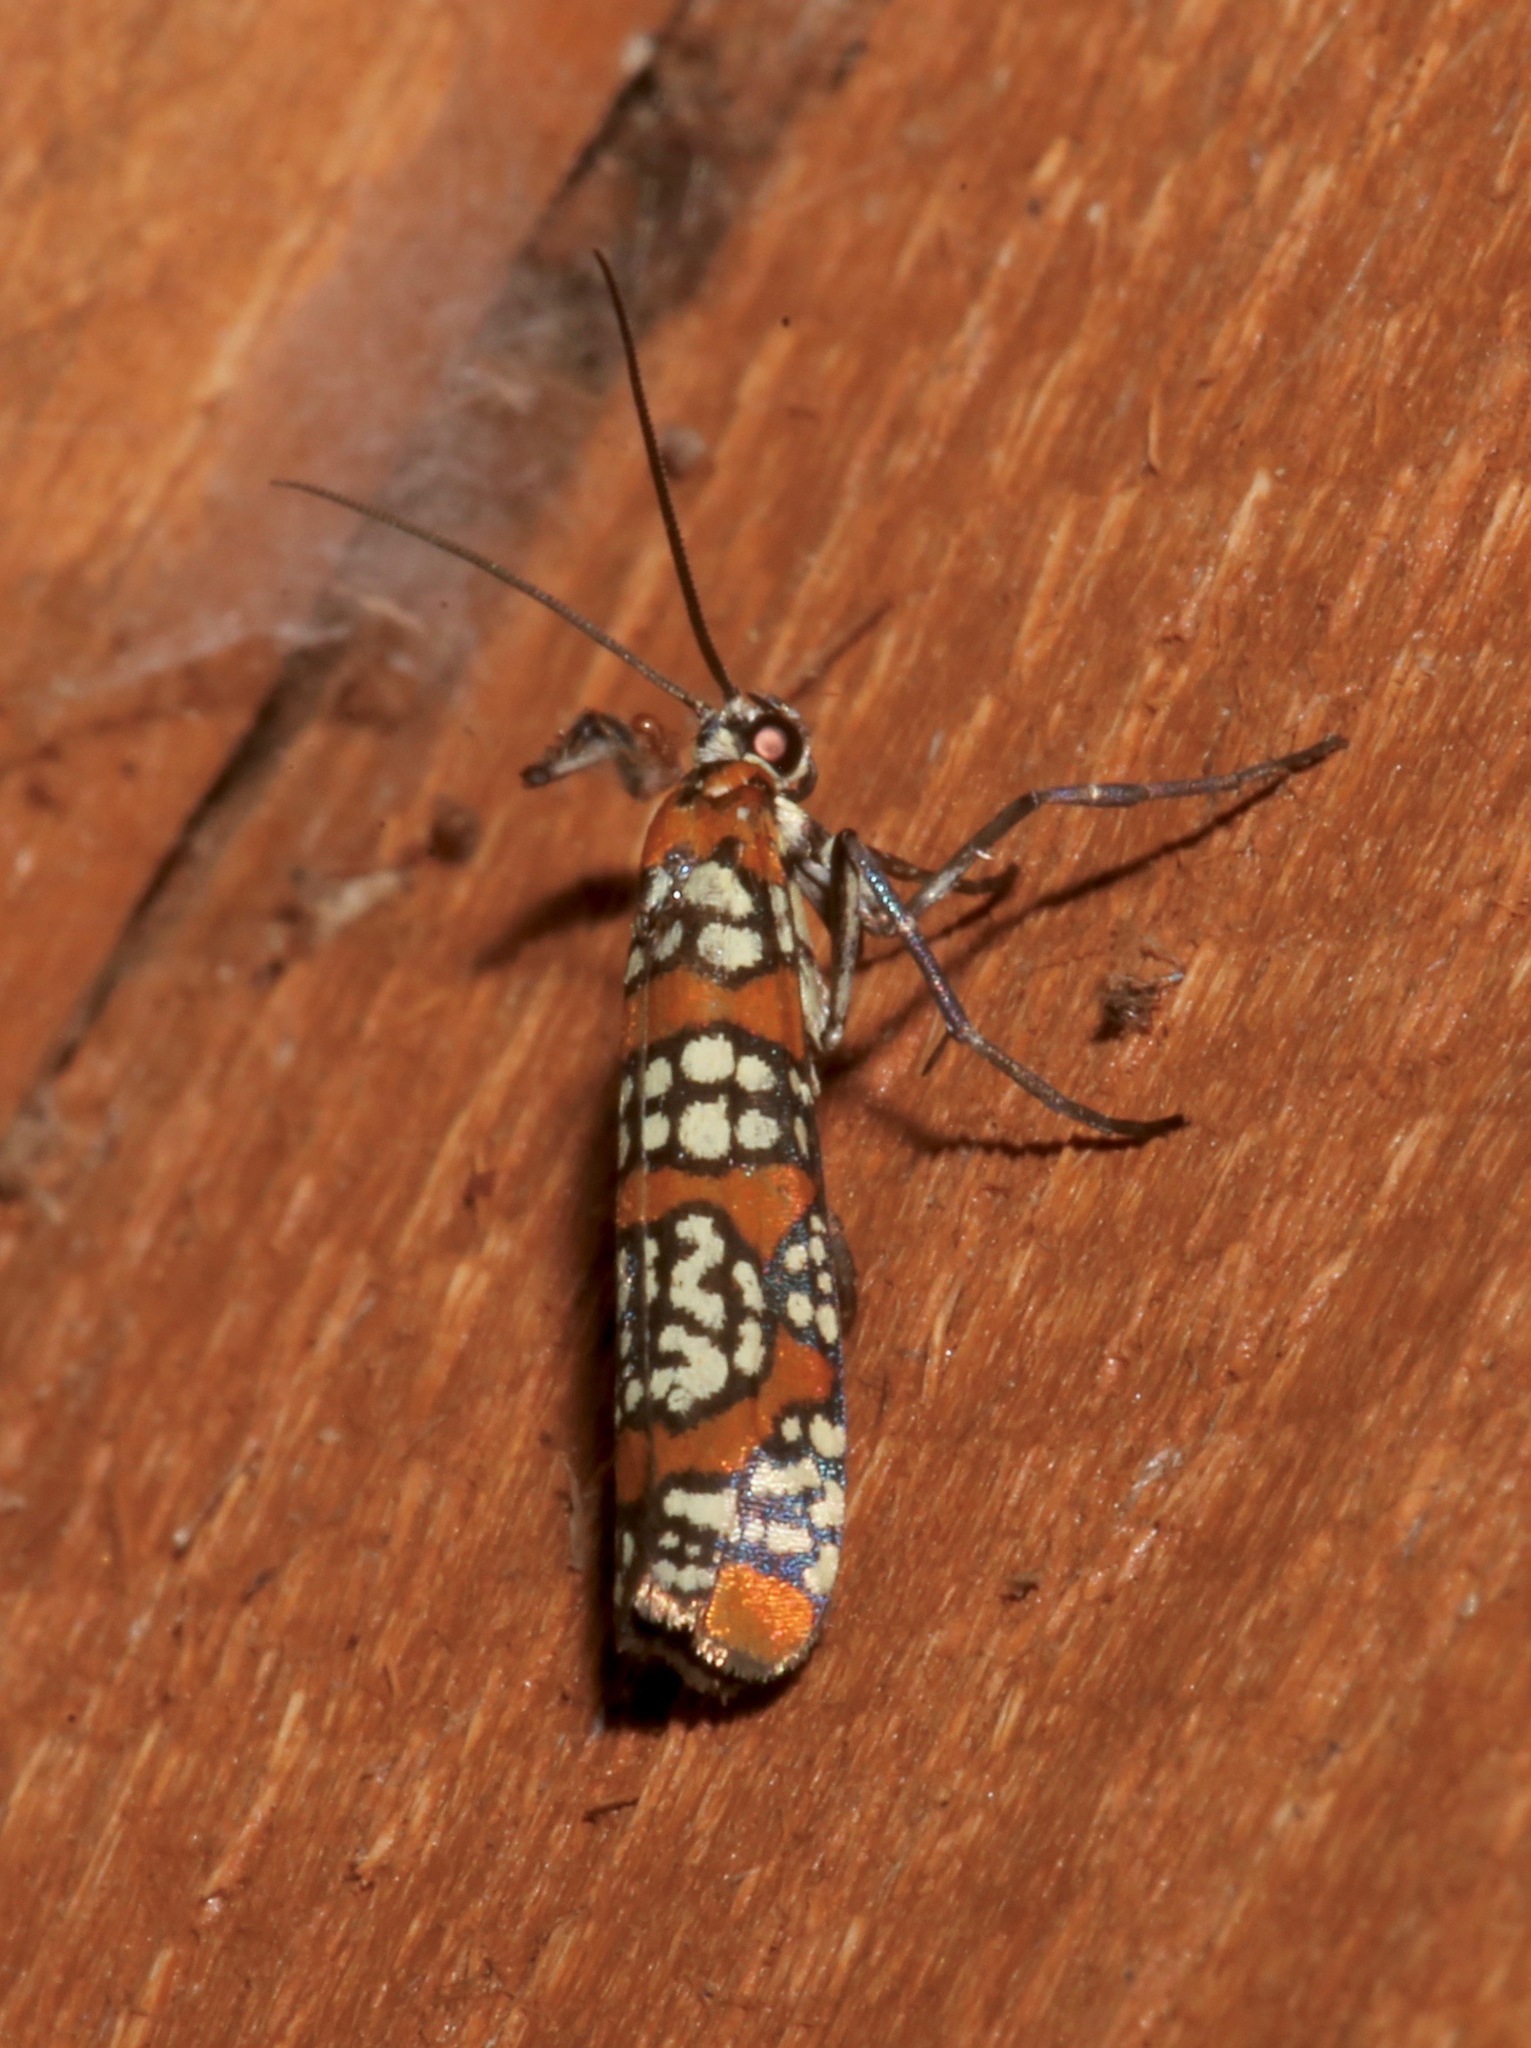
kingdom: Animalia
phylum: Arthropoda
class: Insecta
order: Lepidoptera
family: Attevidae
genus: Atteva
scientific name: Atteva punctella
